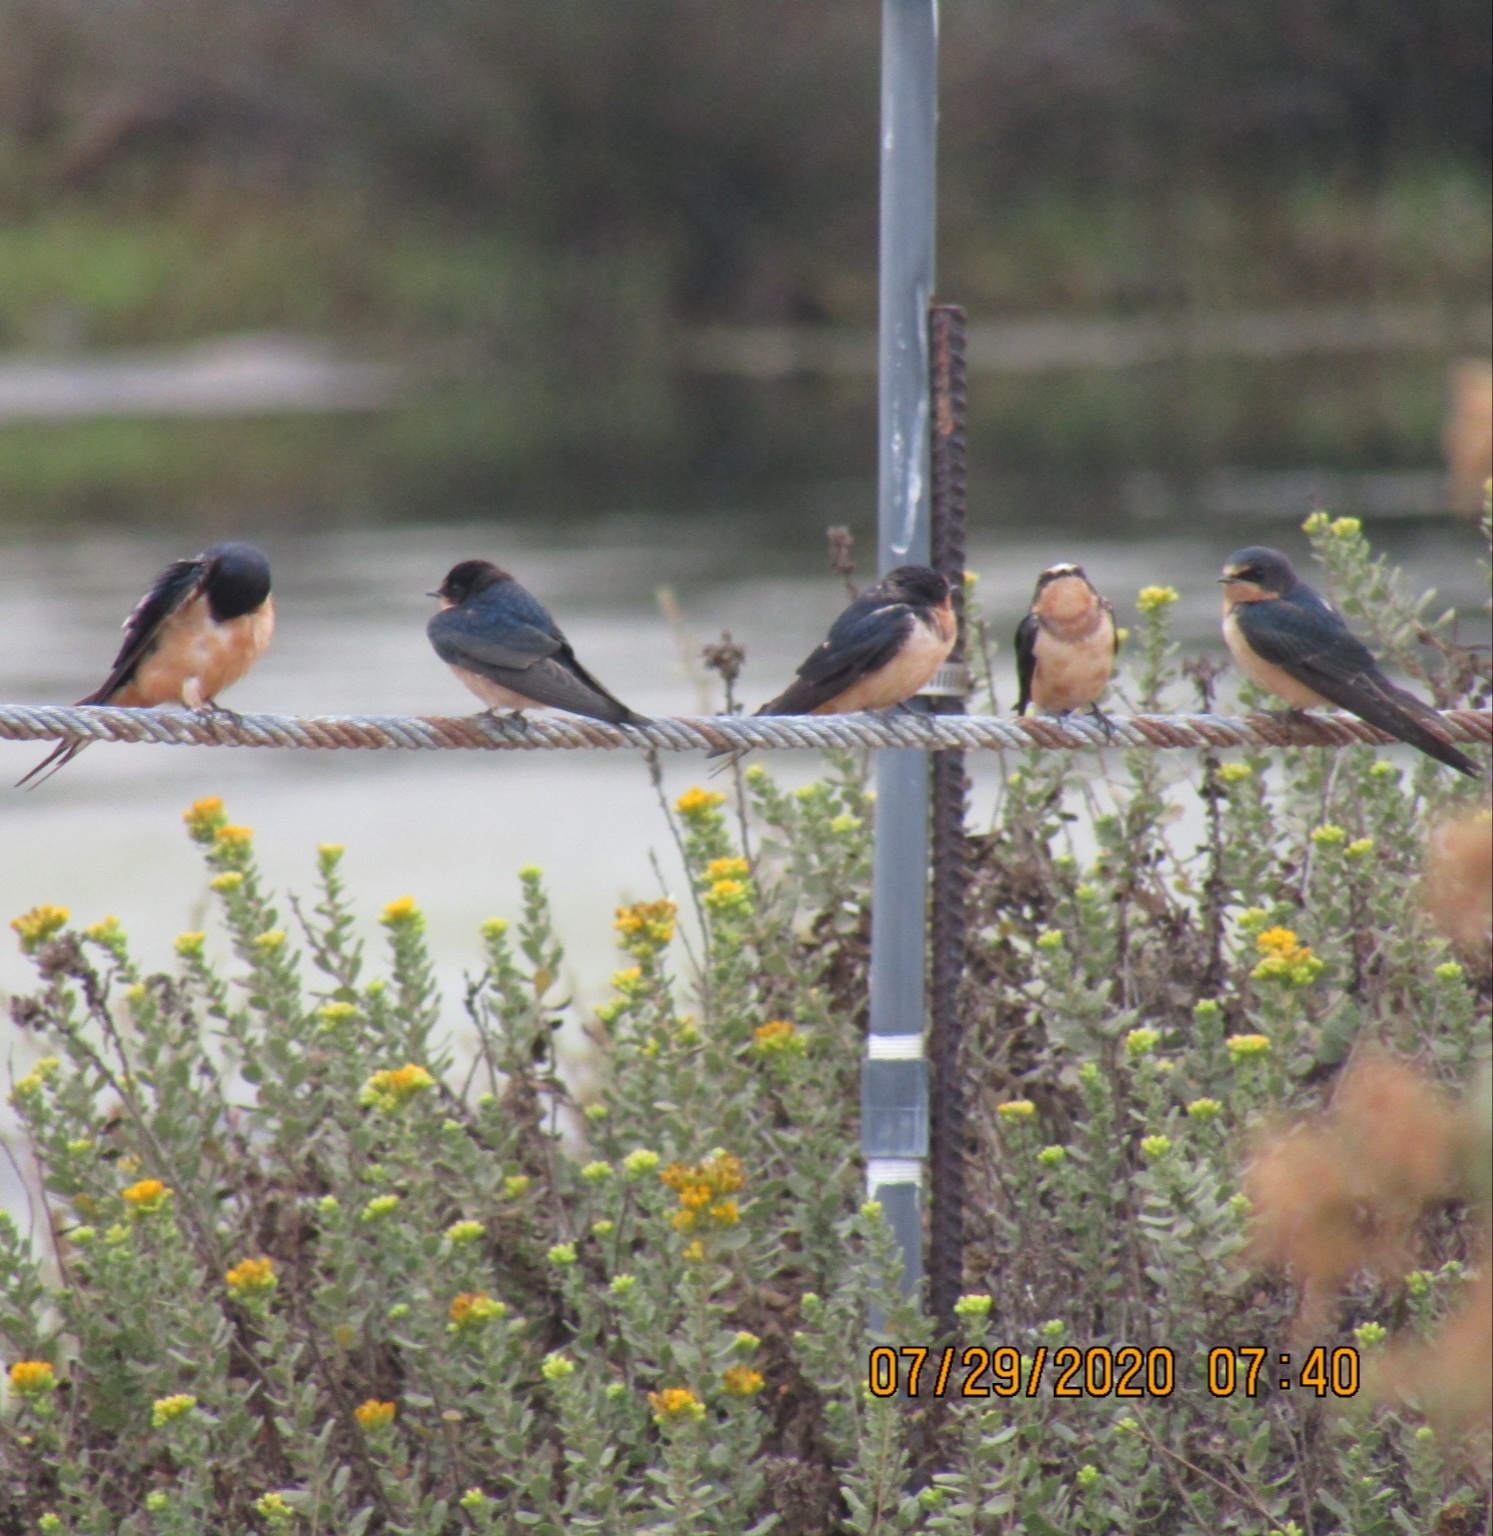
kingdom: Animalia
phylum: Chordata
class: Aves
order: Passeriformes
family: Hirundinidae
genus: Hirundo
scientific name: Hirundo rustica
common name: Barn swallow
